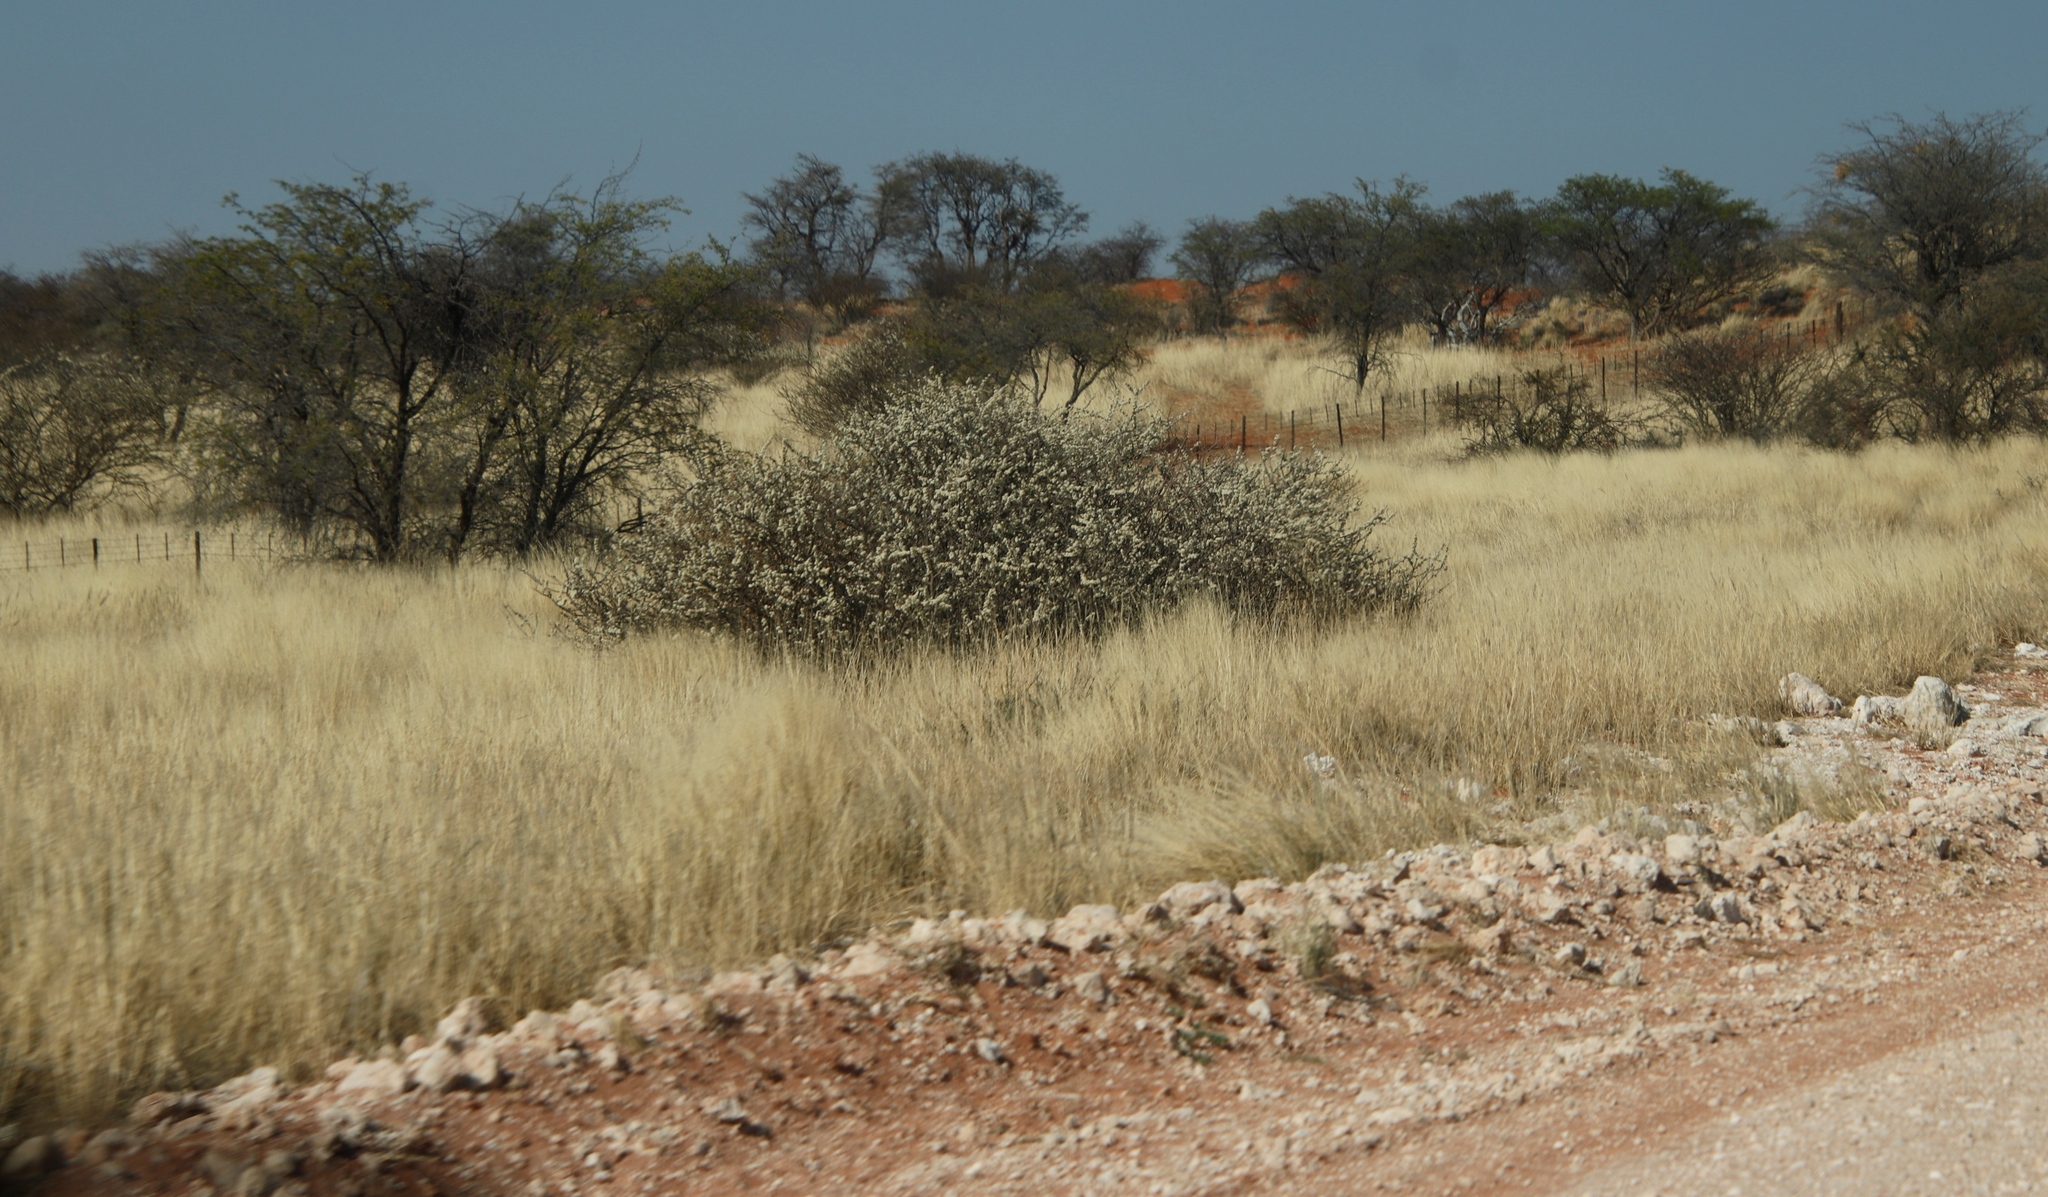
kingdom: Plantae
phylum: Tracheophyta
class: Magnoliopsida
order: Fabales
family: Fabaceae
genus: Vachellia
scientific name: Vachellia hebeclada
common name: Candle thorn
